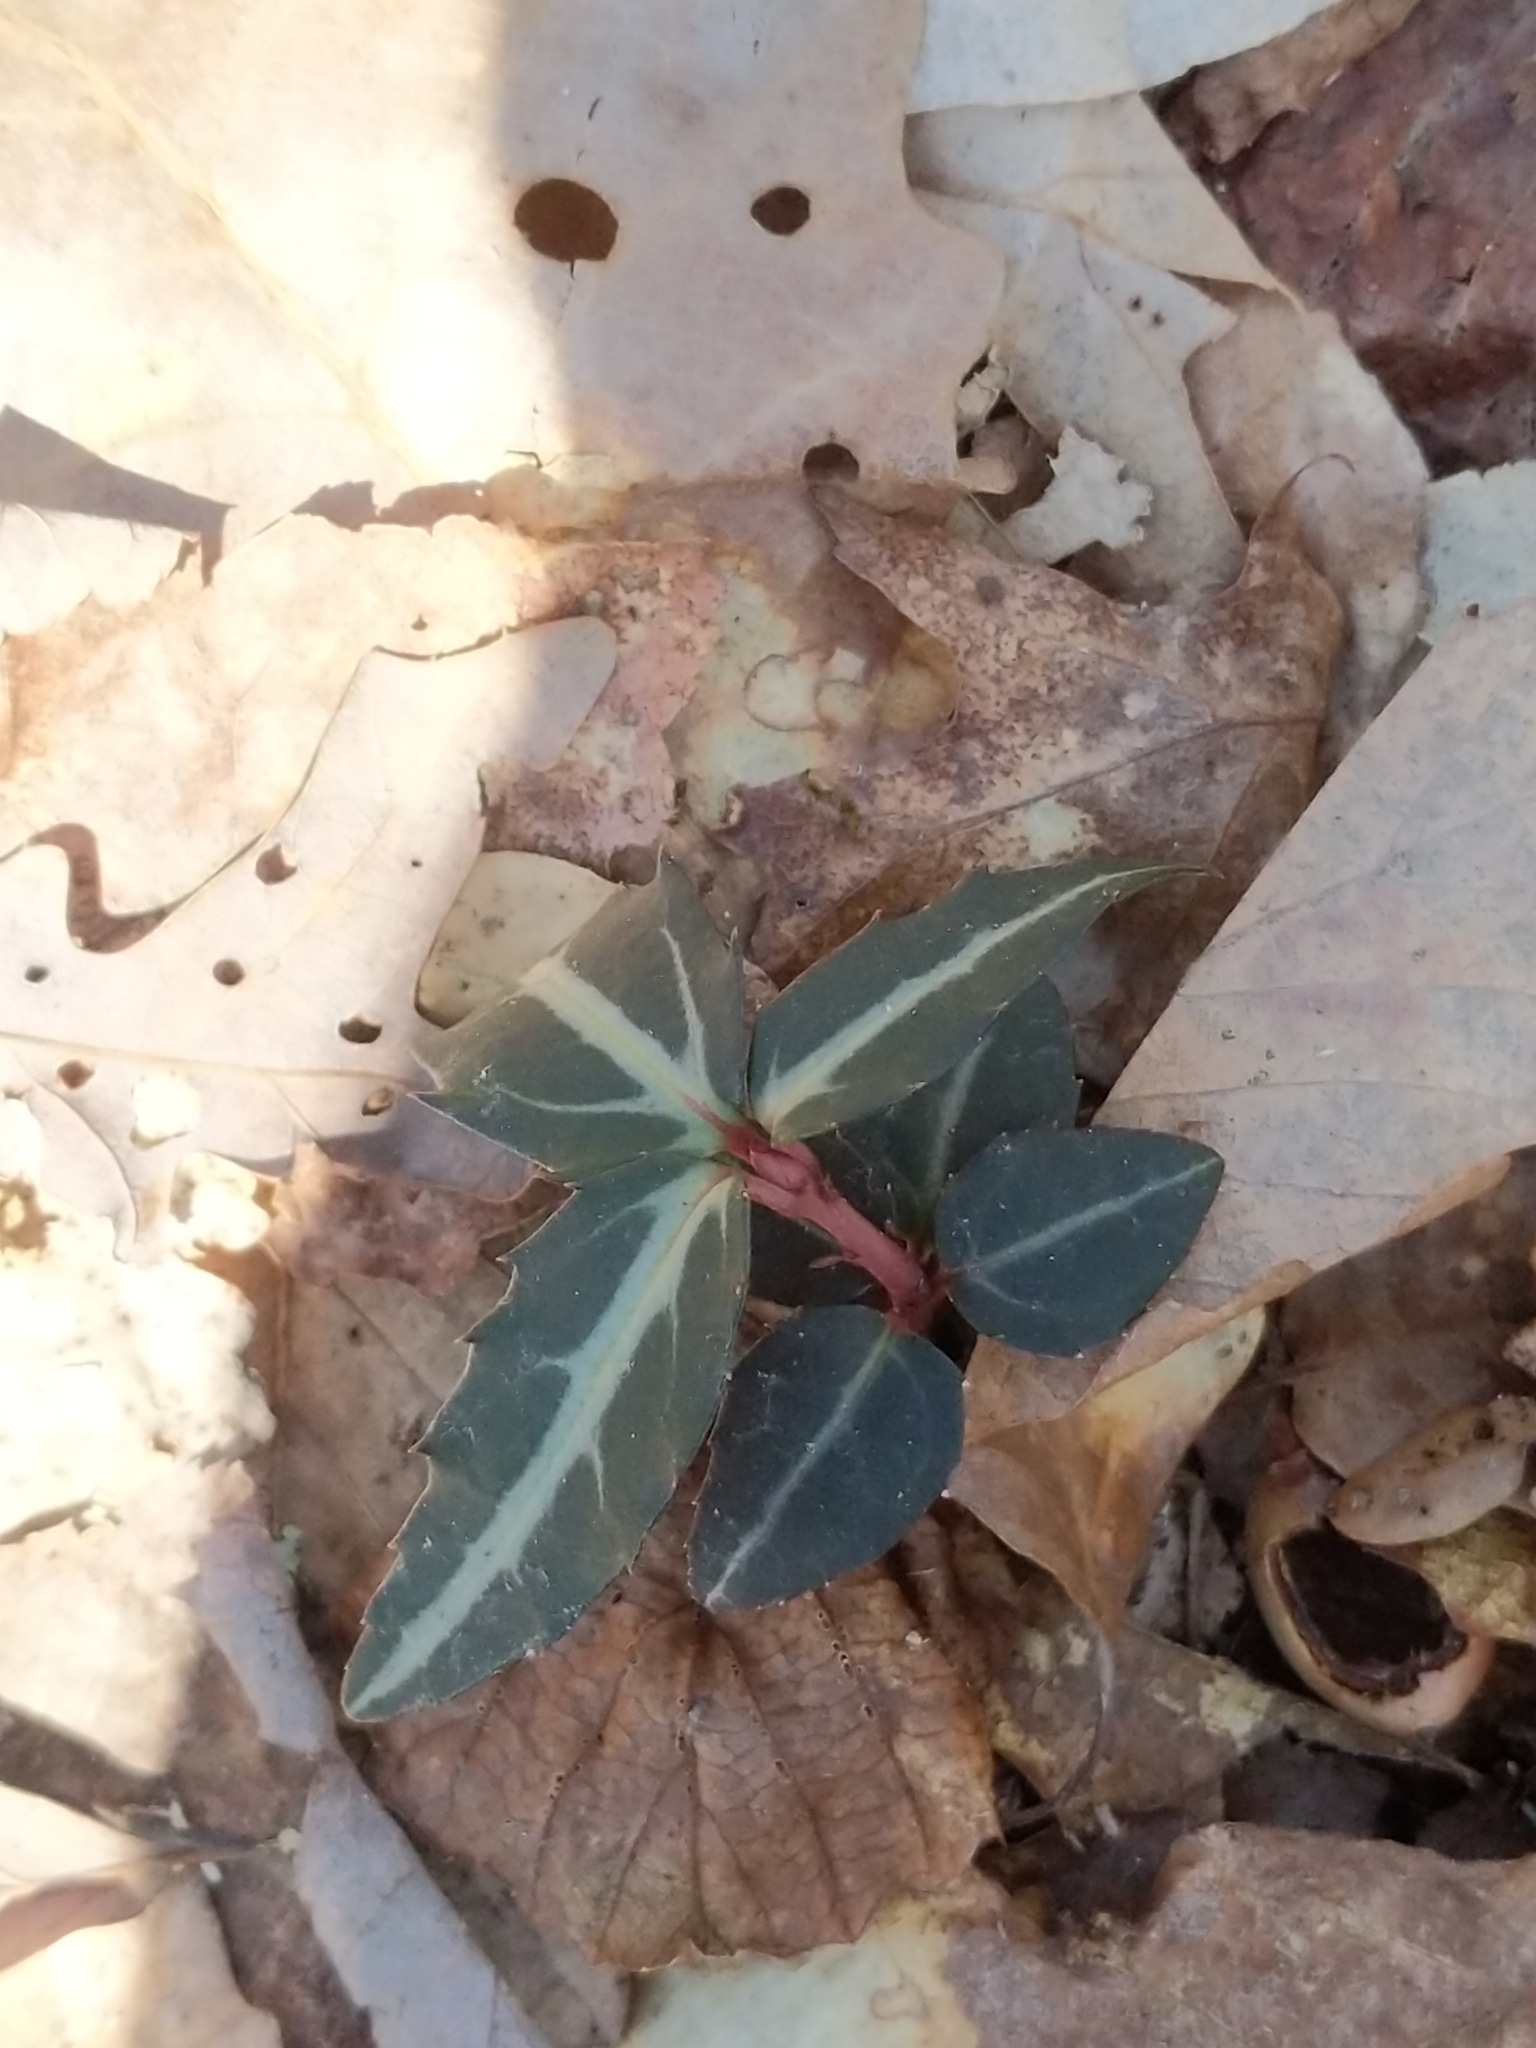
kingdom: Plantae
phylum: Tracheophyta
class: Magnoliopsida
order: Ericales
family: Ericaceae
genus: Chimaphila
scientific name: Chimaphila maculata
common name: Spotted pipsissewa
